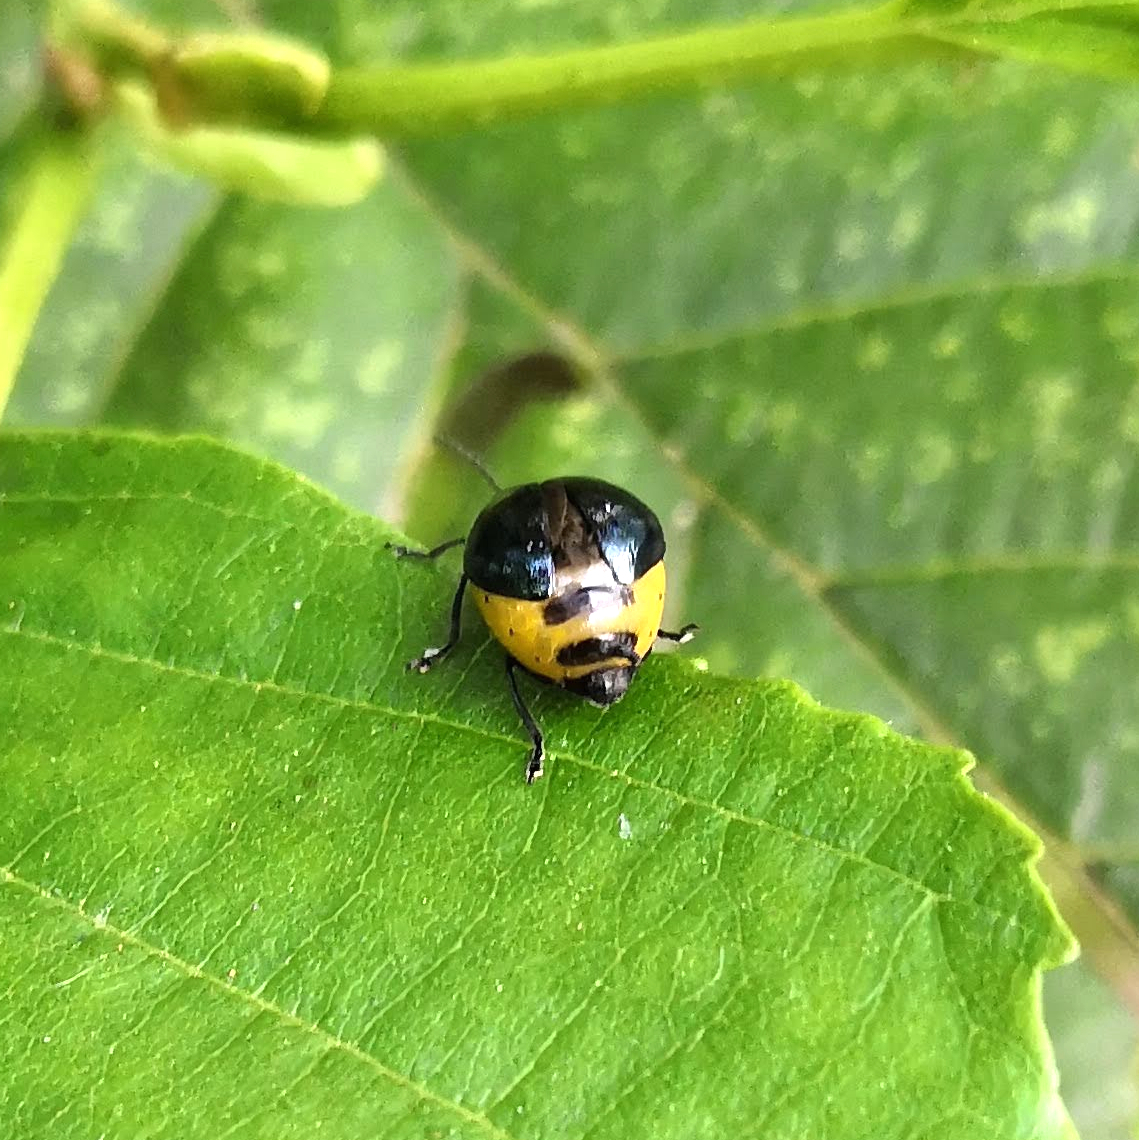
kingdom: Animalia
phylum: Arthropoda
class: Insecta
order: Coleoptera
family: Chrysomelidae
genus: Agelastica
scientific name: Agelastica alni
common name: Alder leaf beetle
